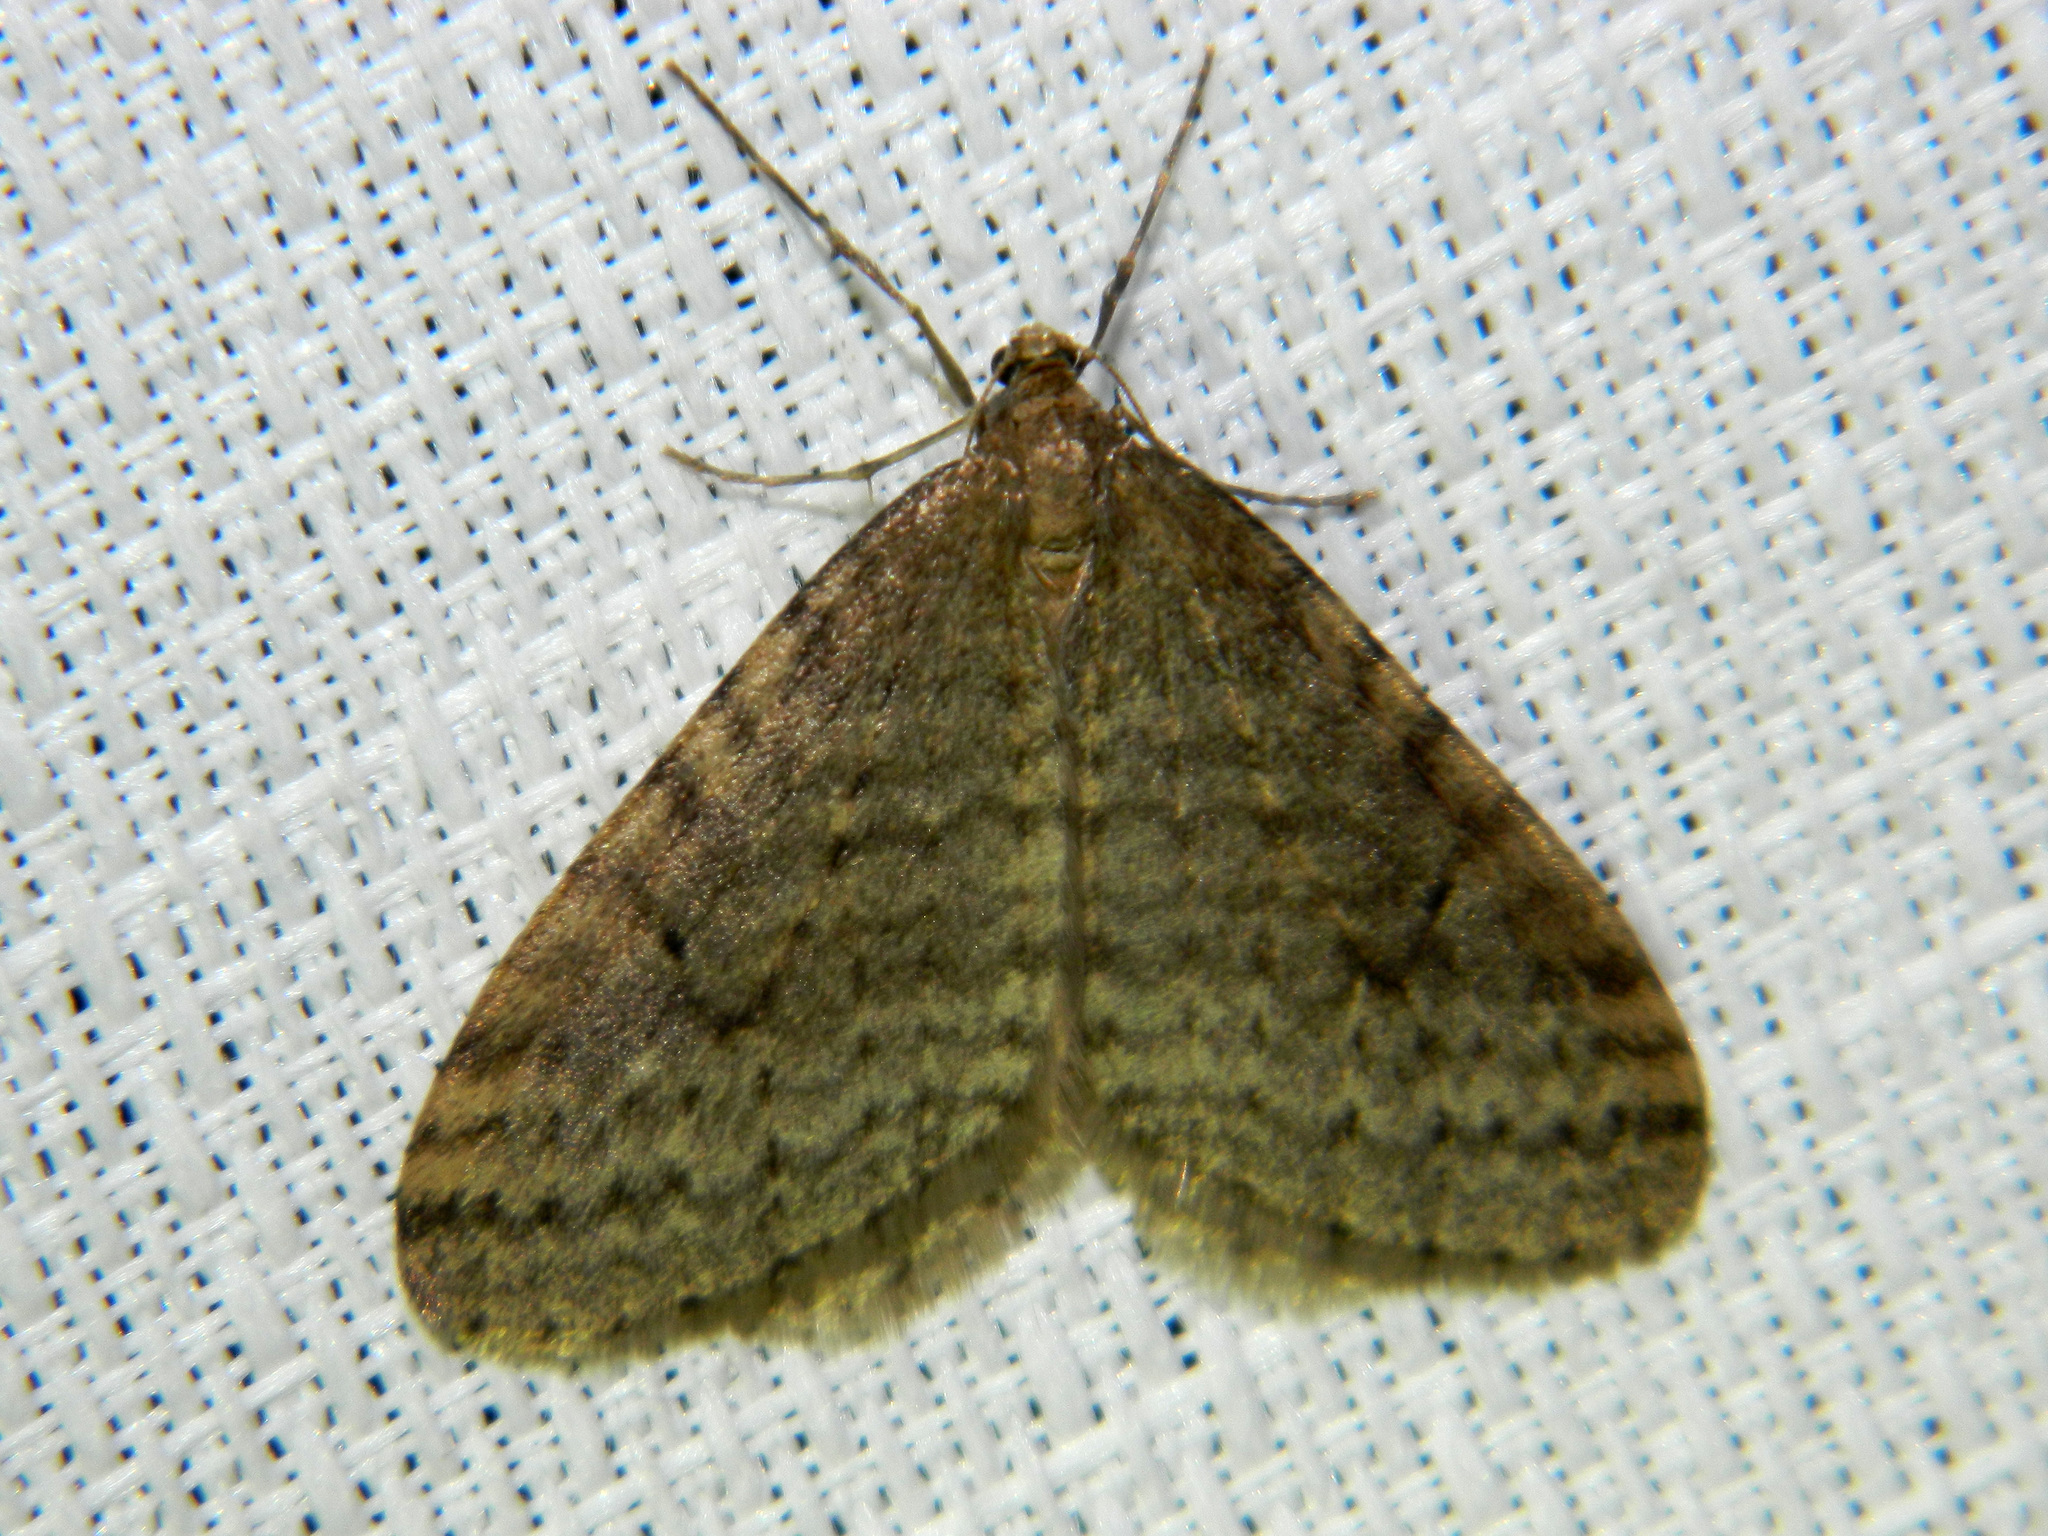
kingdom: Animalia
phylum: Arthropoda
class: Insecta
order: Lepidoptera
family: Geometridae
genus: Operophtera
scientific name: Operophtera bruceata
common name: Bruce spanworm
